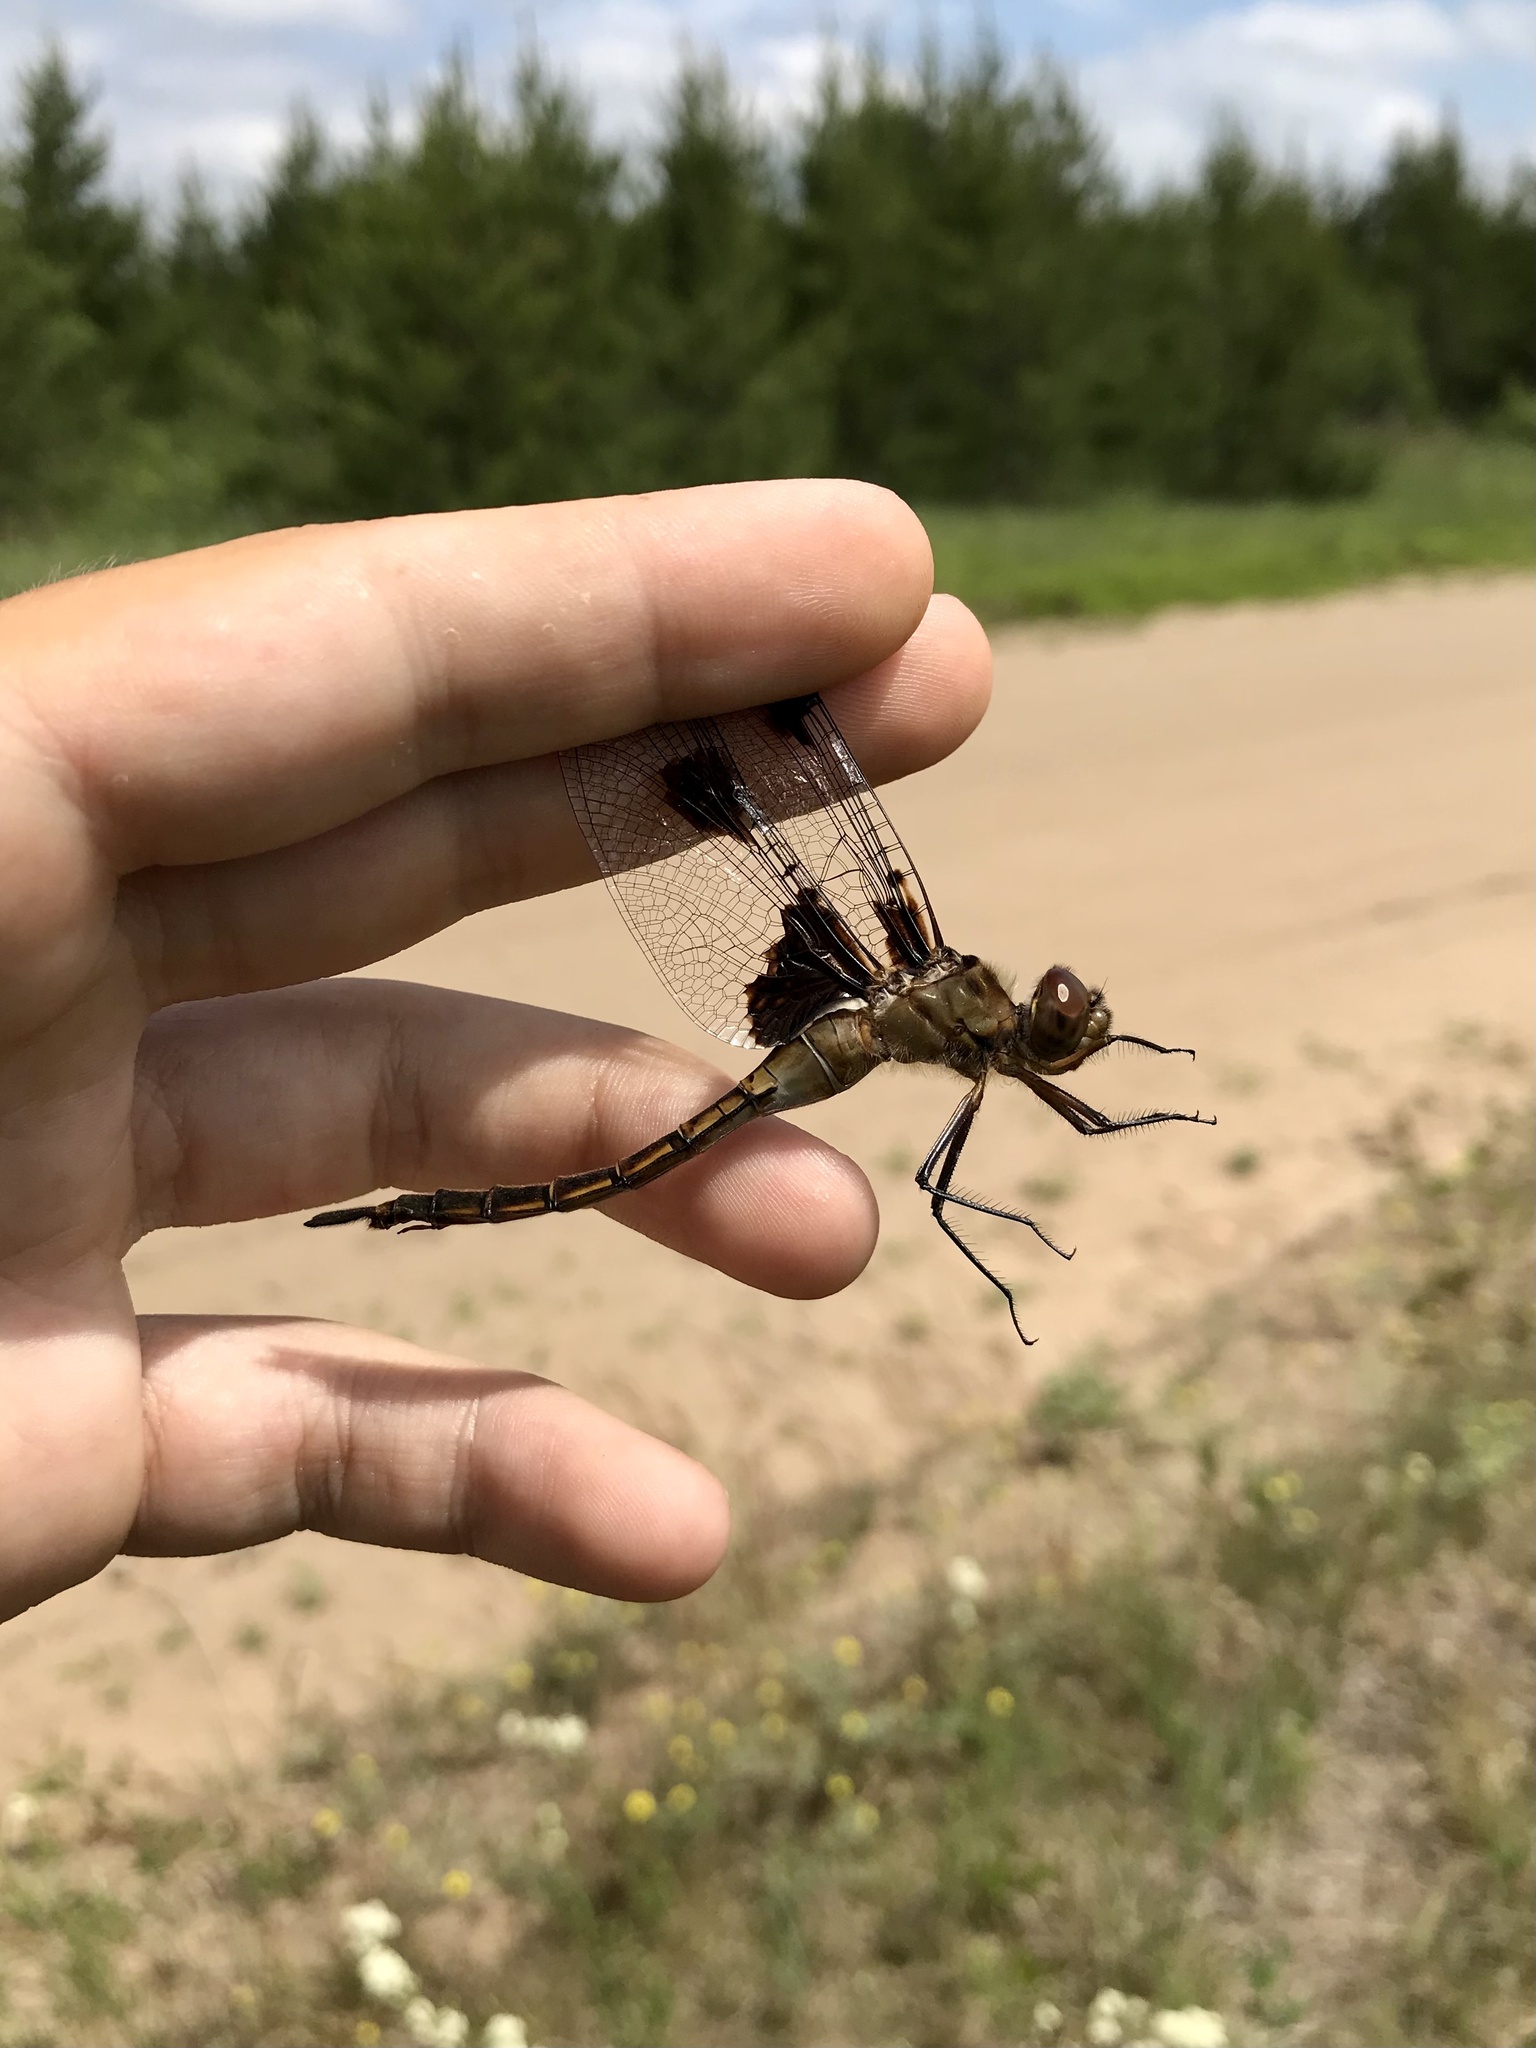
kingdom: Animalia
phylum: Arthropoda
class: Insecta
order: Odonata
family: Corduliidae
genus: Epitheca
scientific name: Epitheca princeps
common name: Prince baskettail
